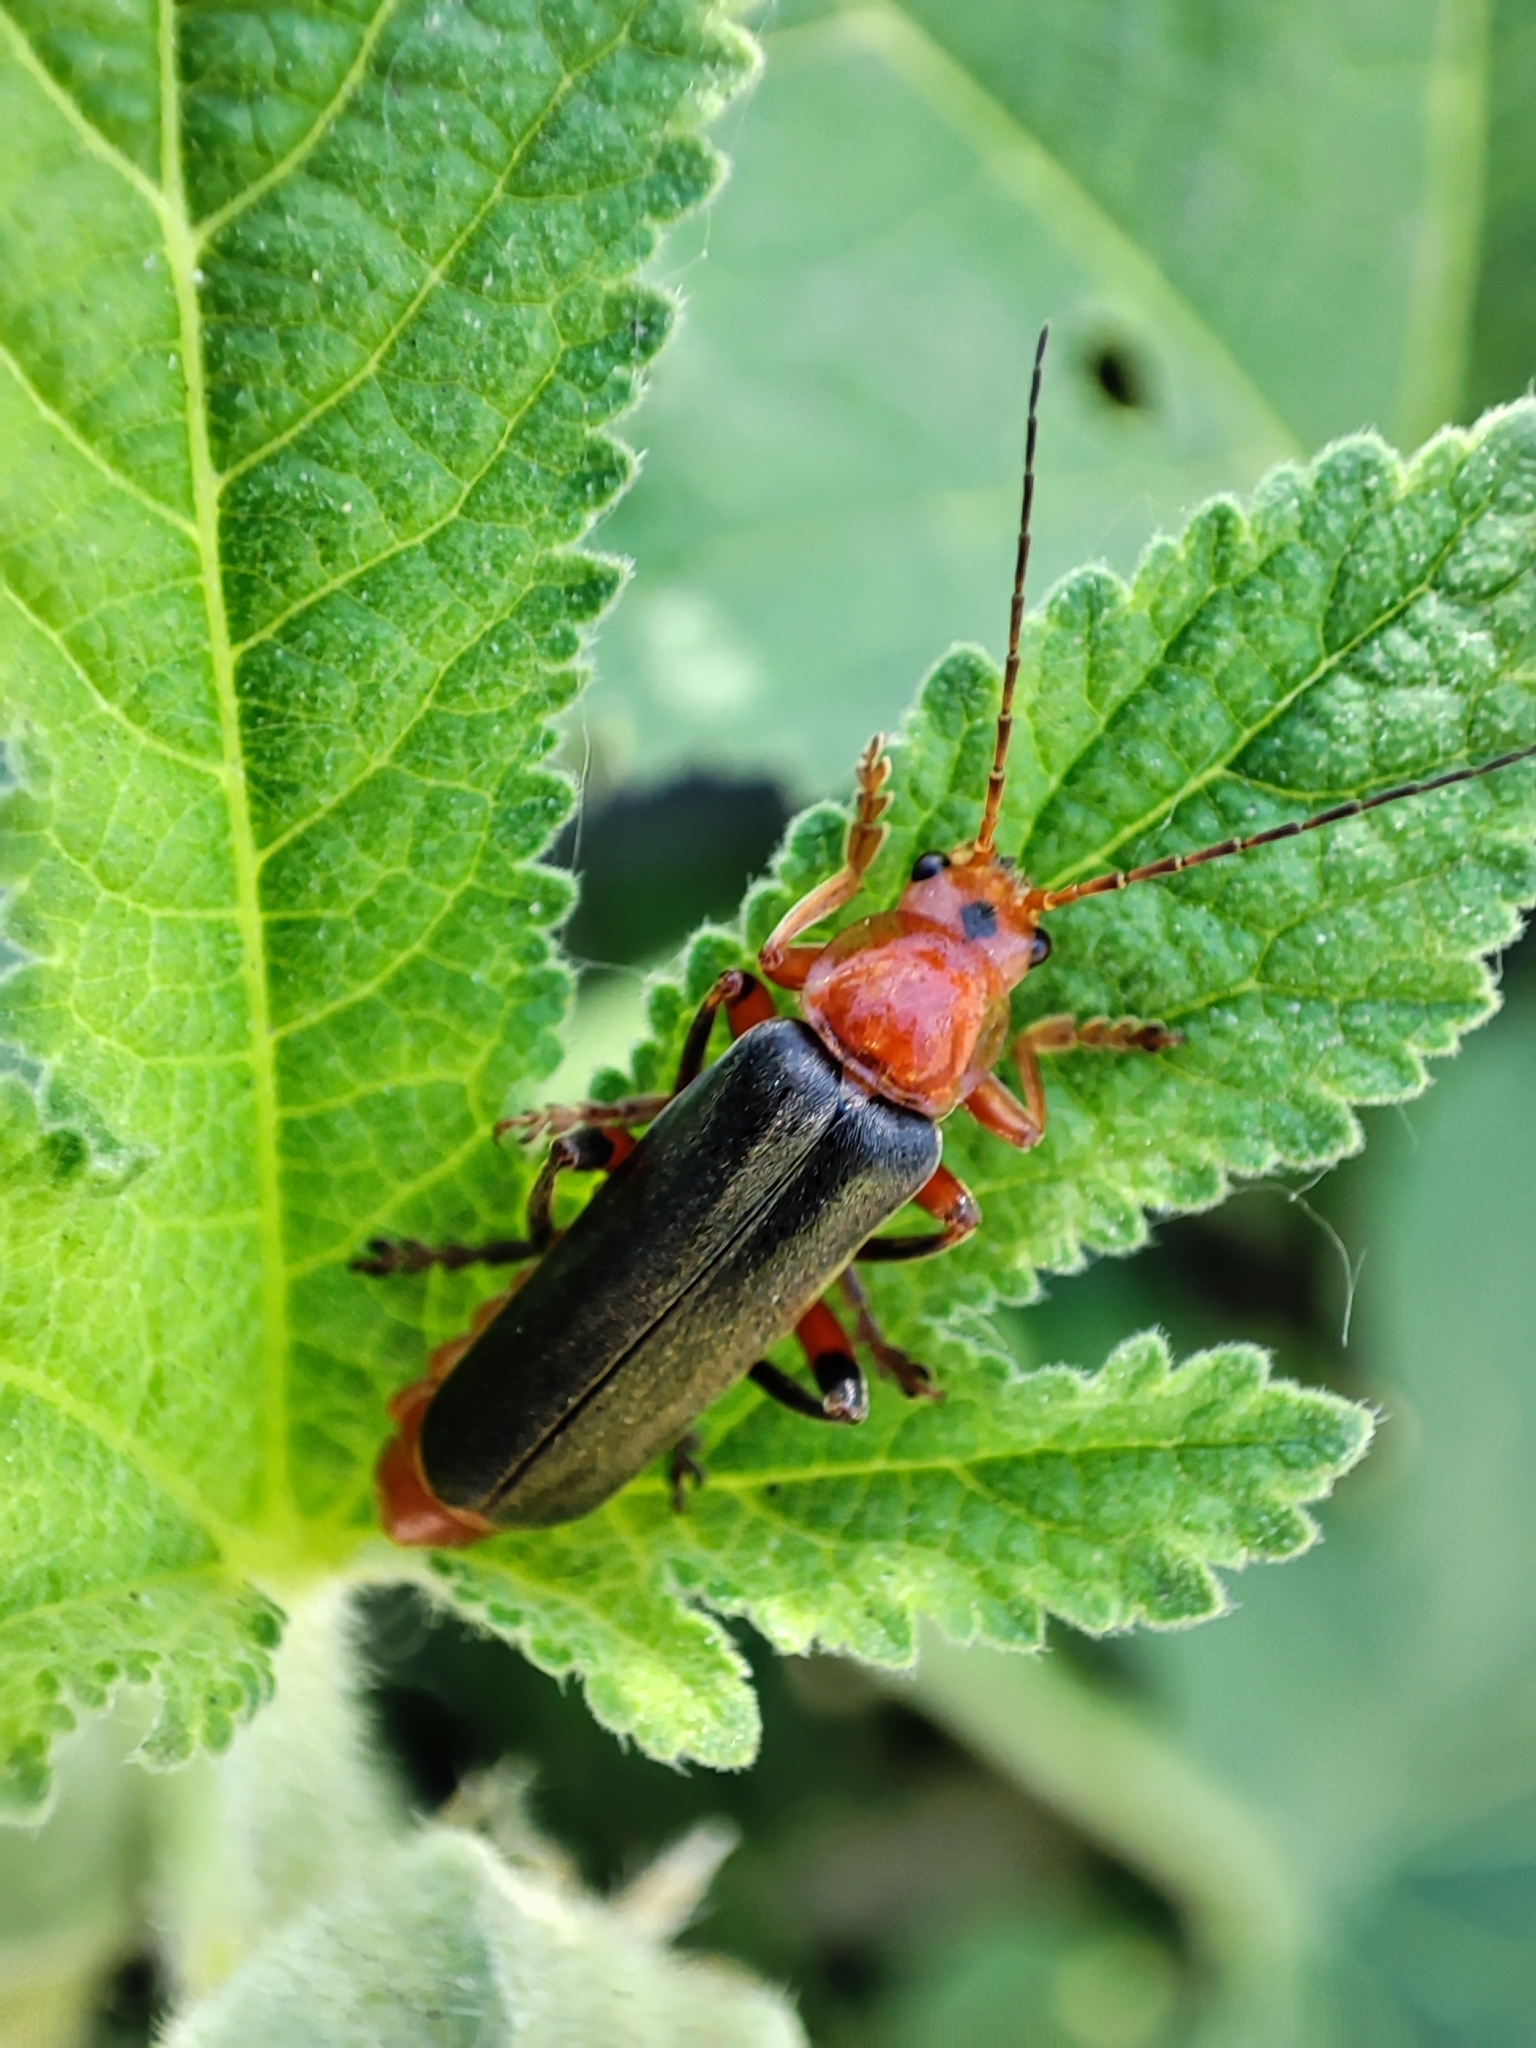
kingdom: Animalia
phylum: Arthropoda
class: Insecta
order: Coleoptera
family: Cantharidae
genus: Cantharis
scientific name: Cantharis livida
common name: Livid soldier beetle
